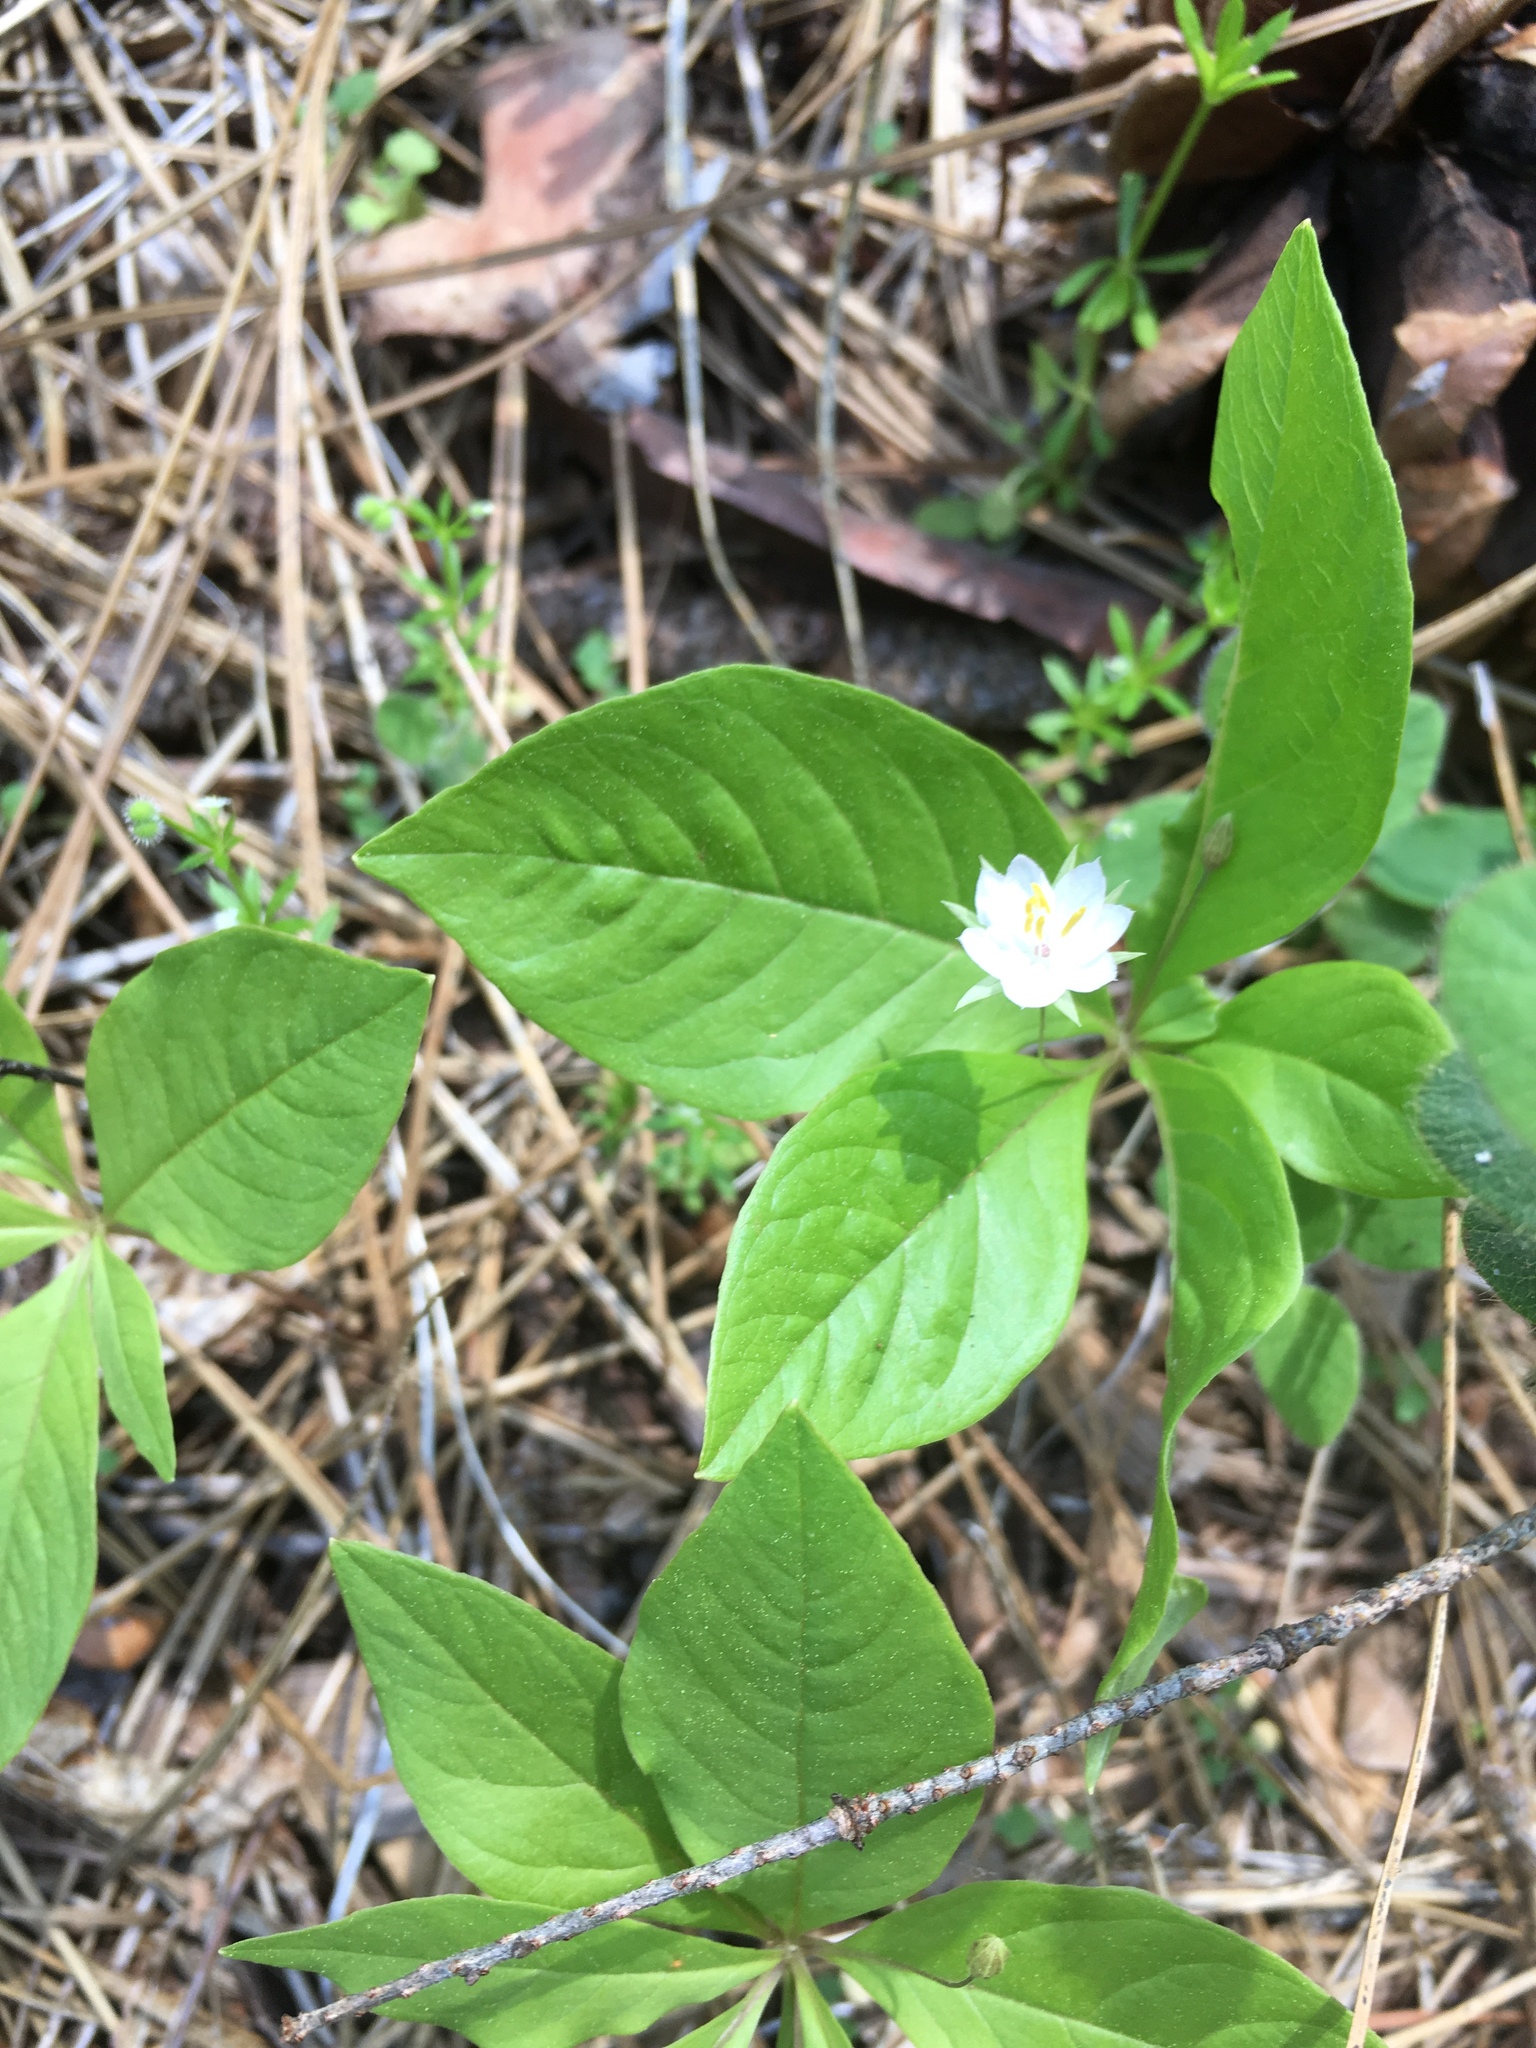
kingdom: Plantae
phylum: Tracheophyta
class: Magnoliopsida
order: Ericales
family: Primulaceae
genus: Lysimachia
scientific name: Lysimachia latifolia
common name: Pacific starflower
